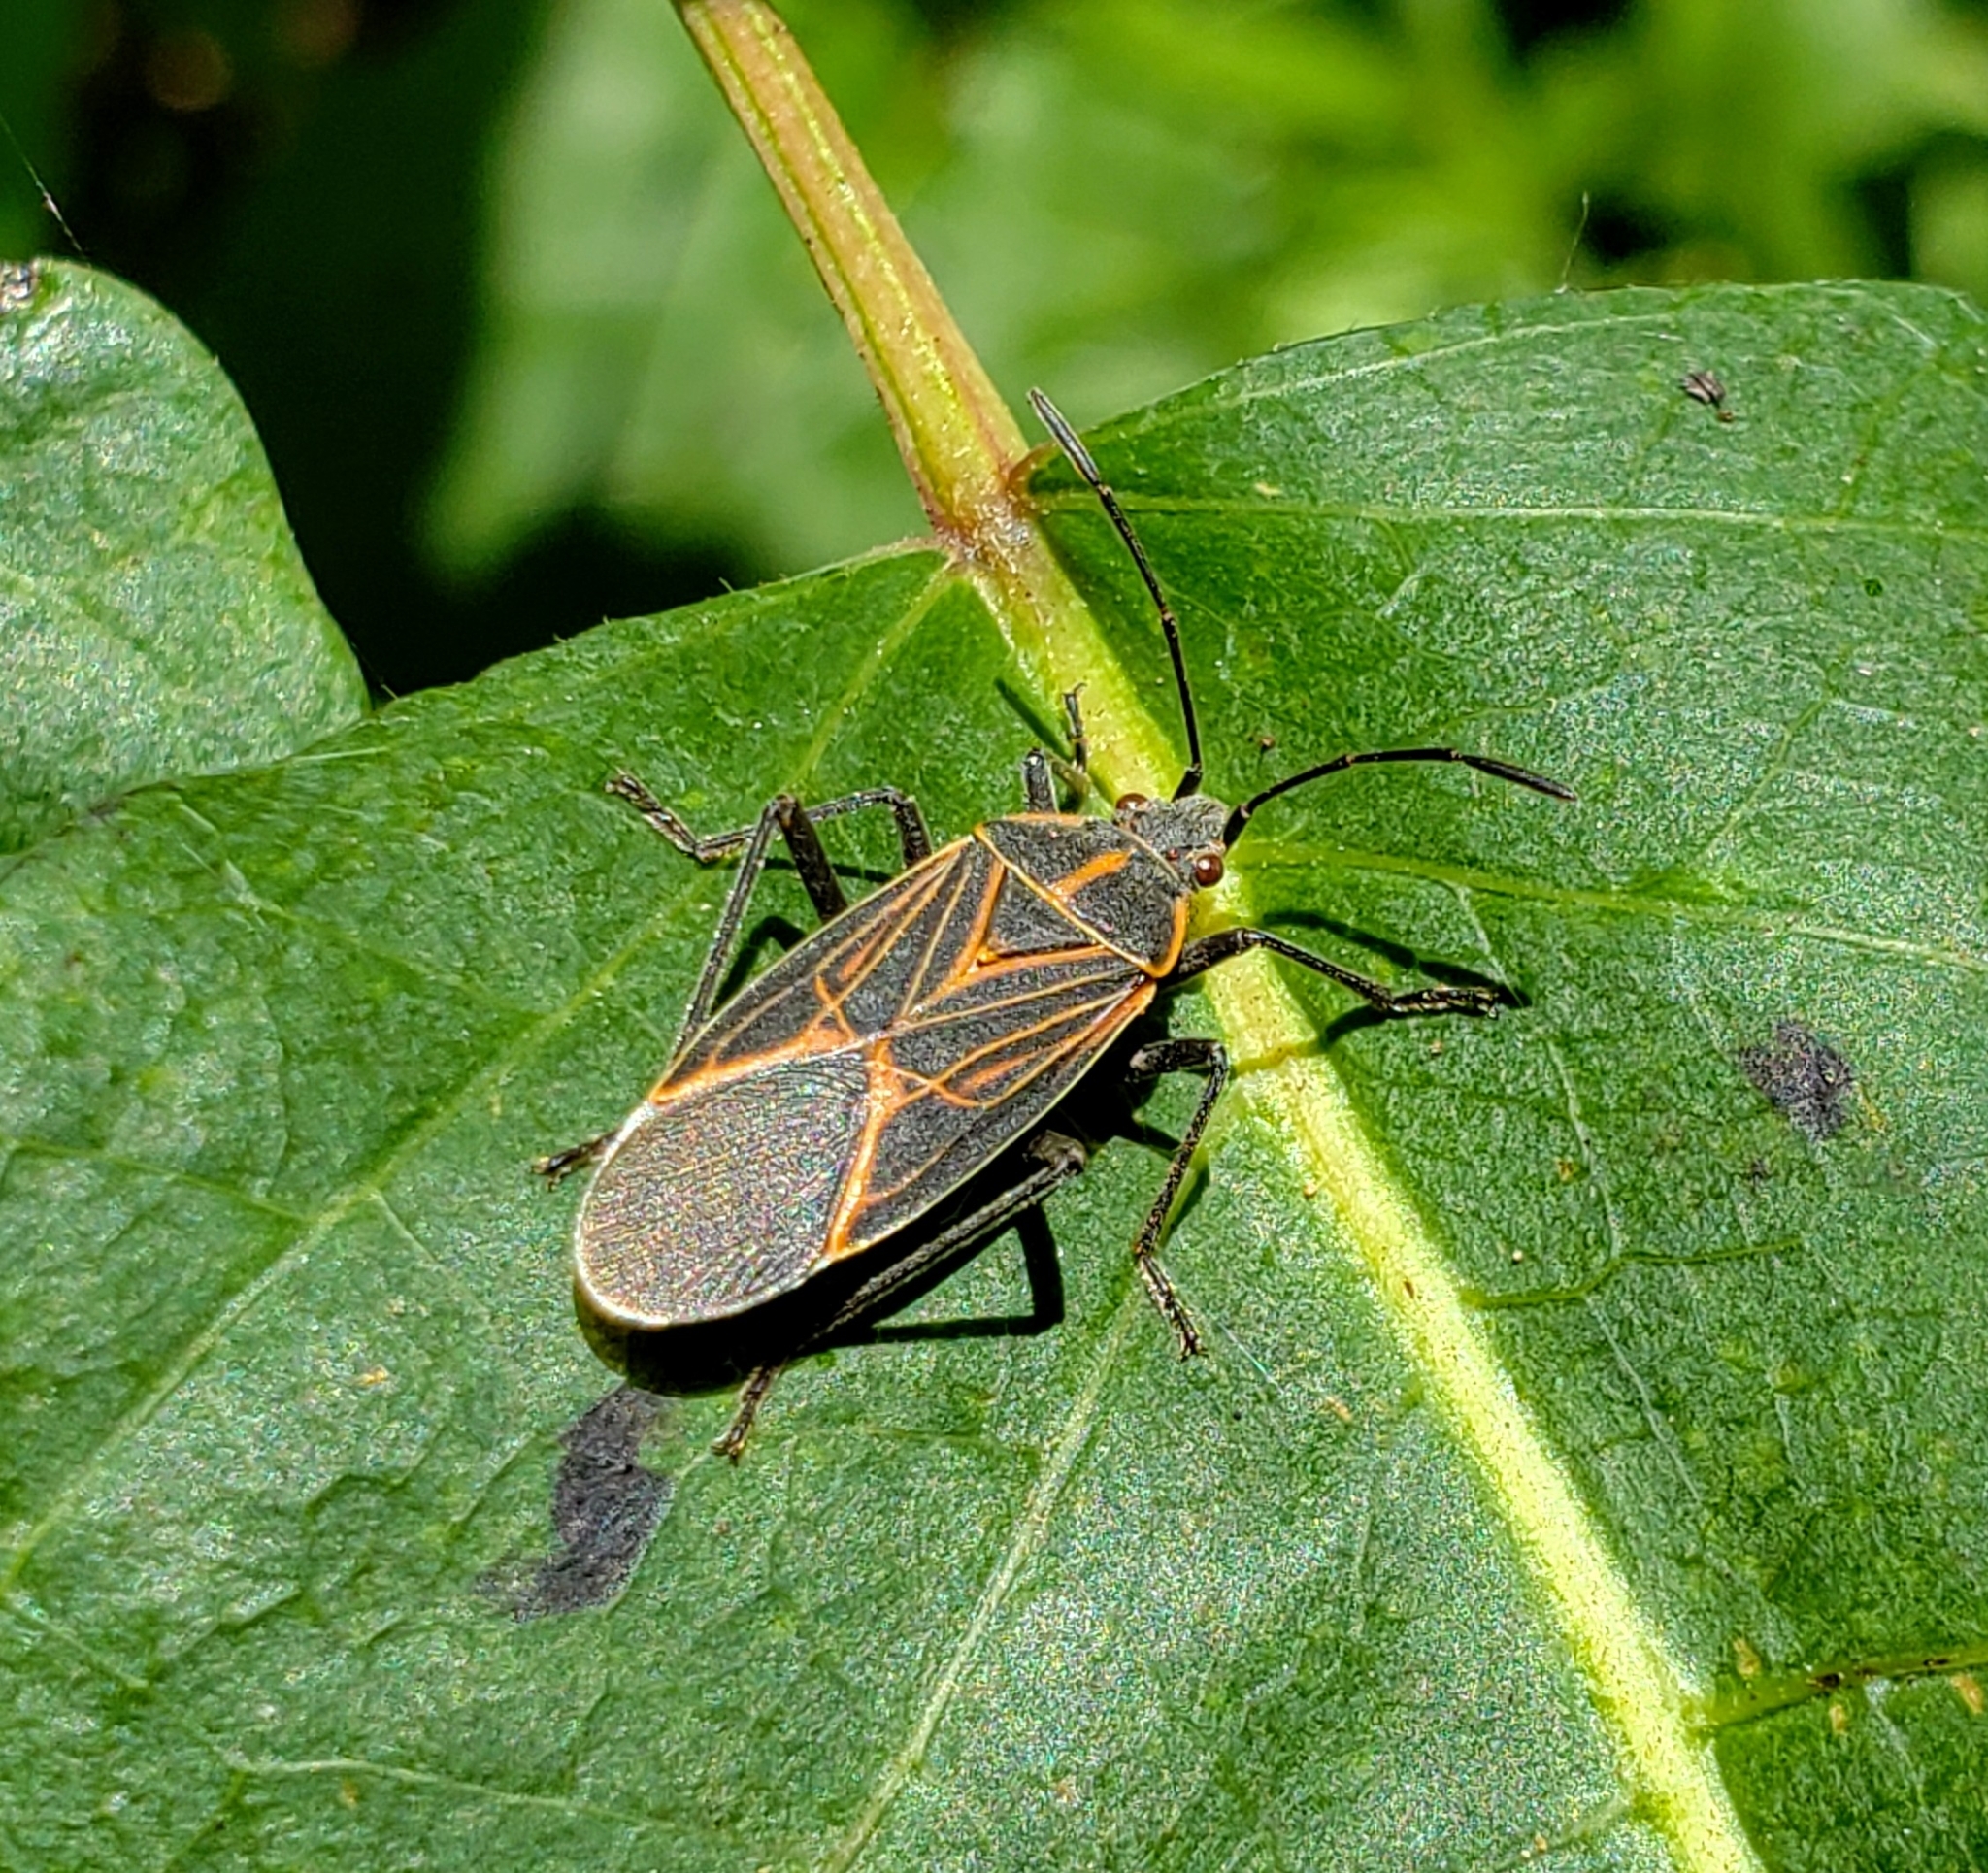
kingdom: Animalia
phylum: Arthropoda
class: Insecta
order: Hemiptera
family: Rhopalidae
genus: Boisea
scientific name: Boisea rubrolineata
